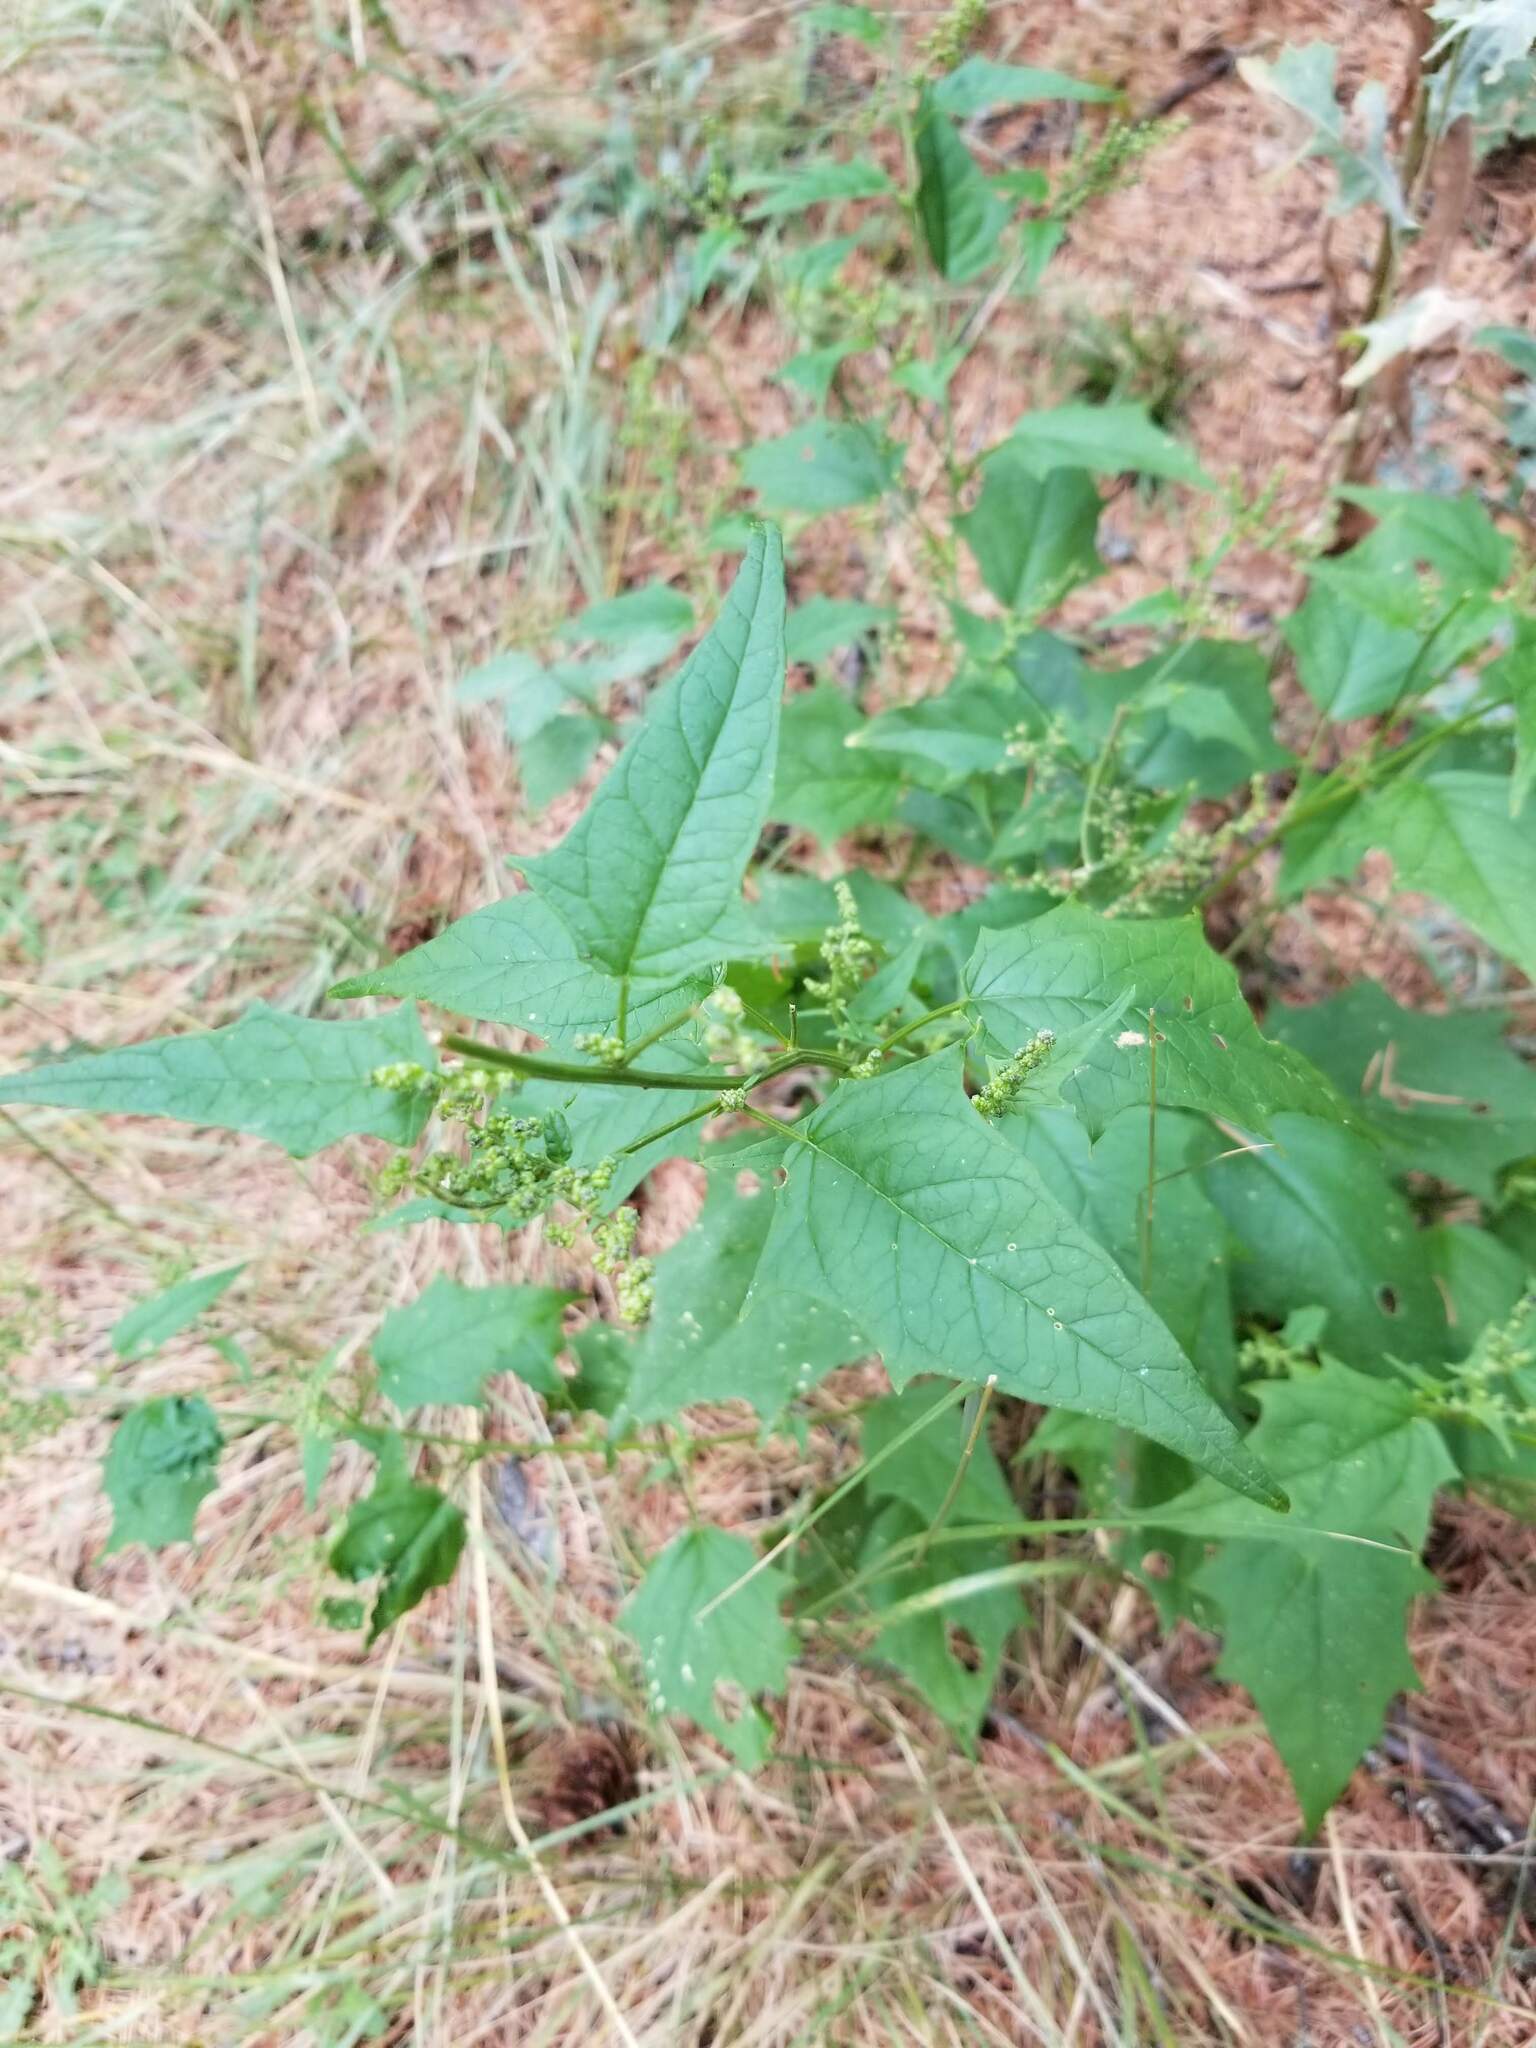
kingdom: Plantae
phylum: Tracheophyta
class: Magnoliopsida
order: Caryophyllales
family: Amaranthaceae
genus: Chenopodiastrum
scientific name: Chenopodiastrum hybridum
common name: Mapleleaf goosefoot
